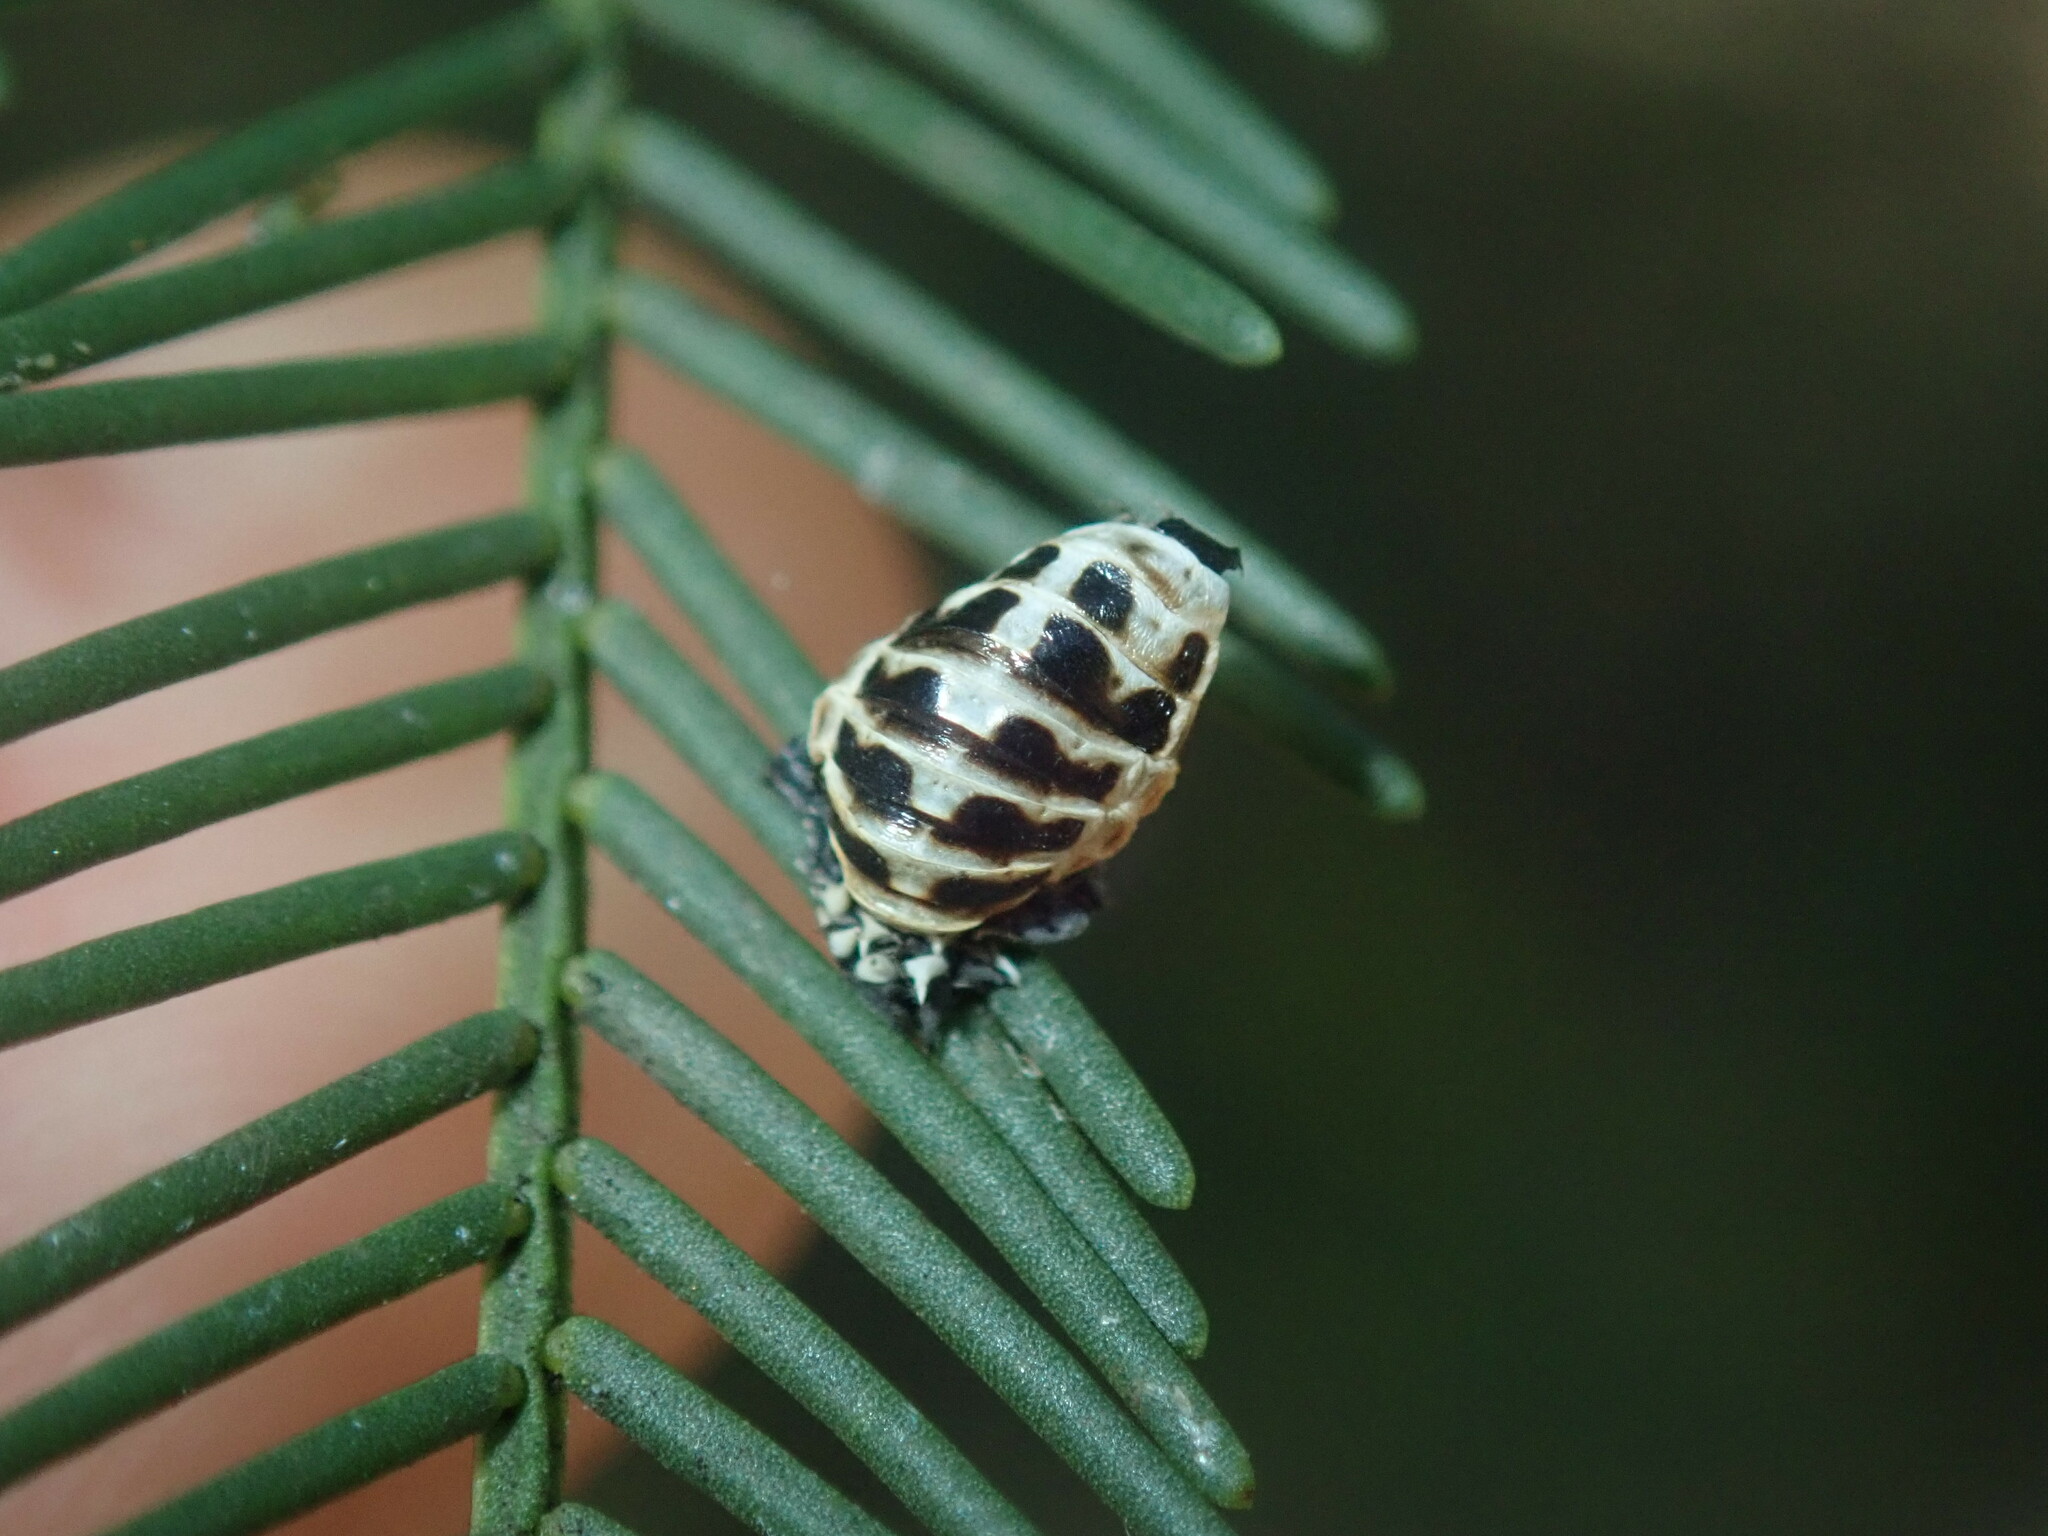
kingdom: Animalia
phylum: Arthropoda
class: Insecta
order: Coleoptera
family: Coccinellidae
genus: Harmonia
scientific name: Harmonia conformis
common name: Common spotted ladybird beetle
